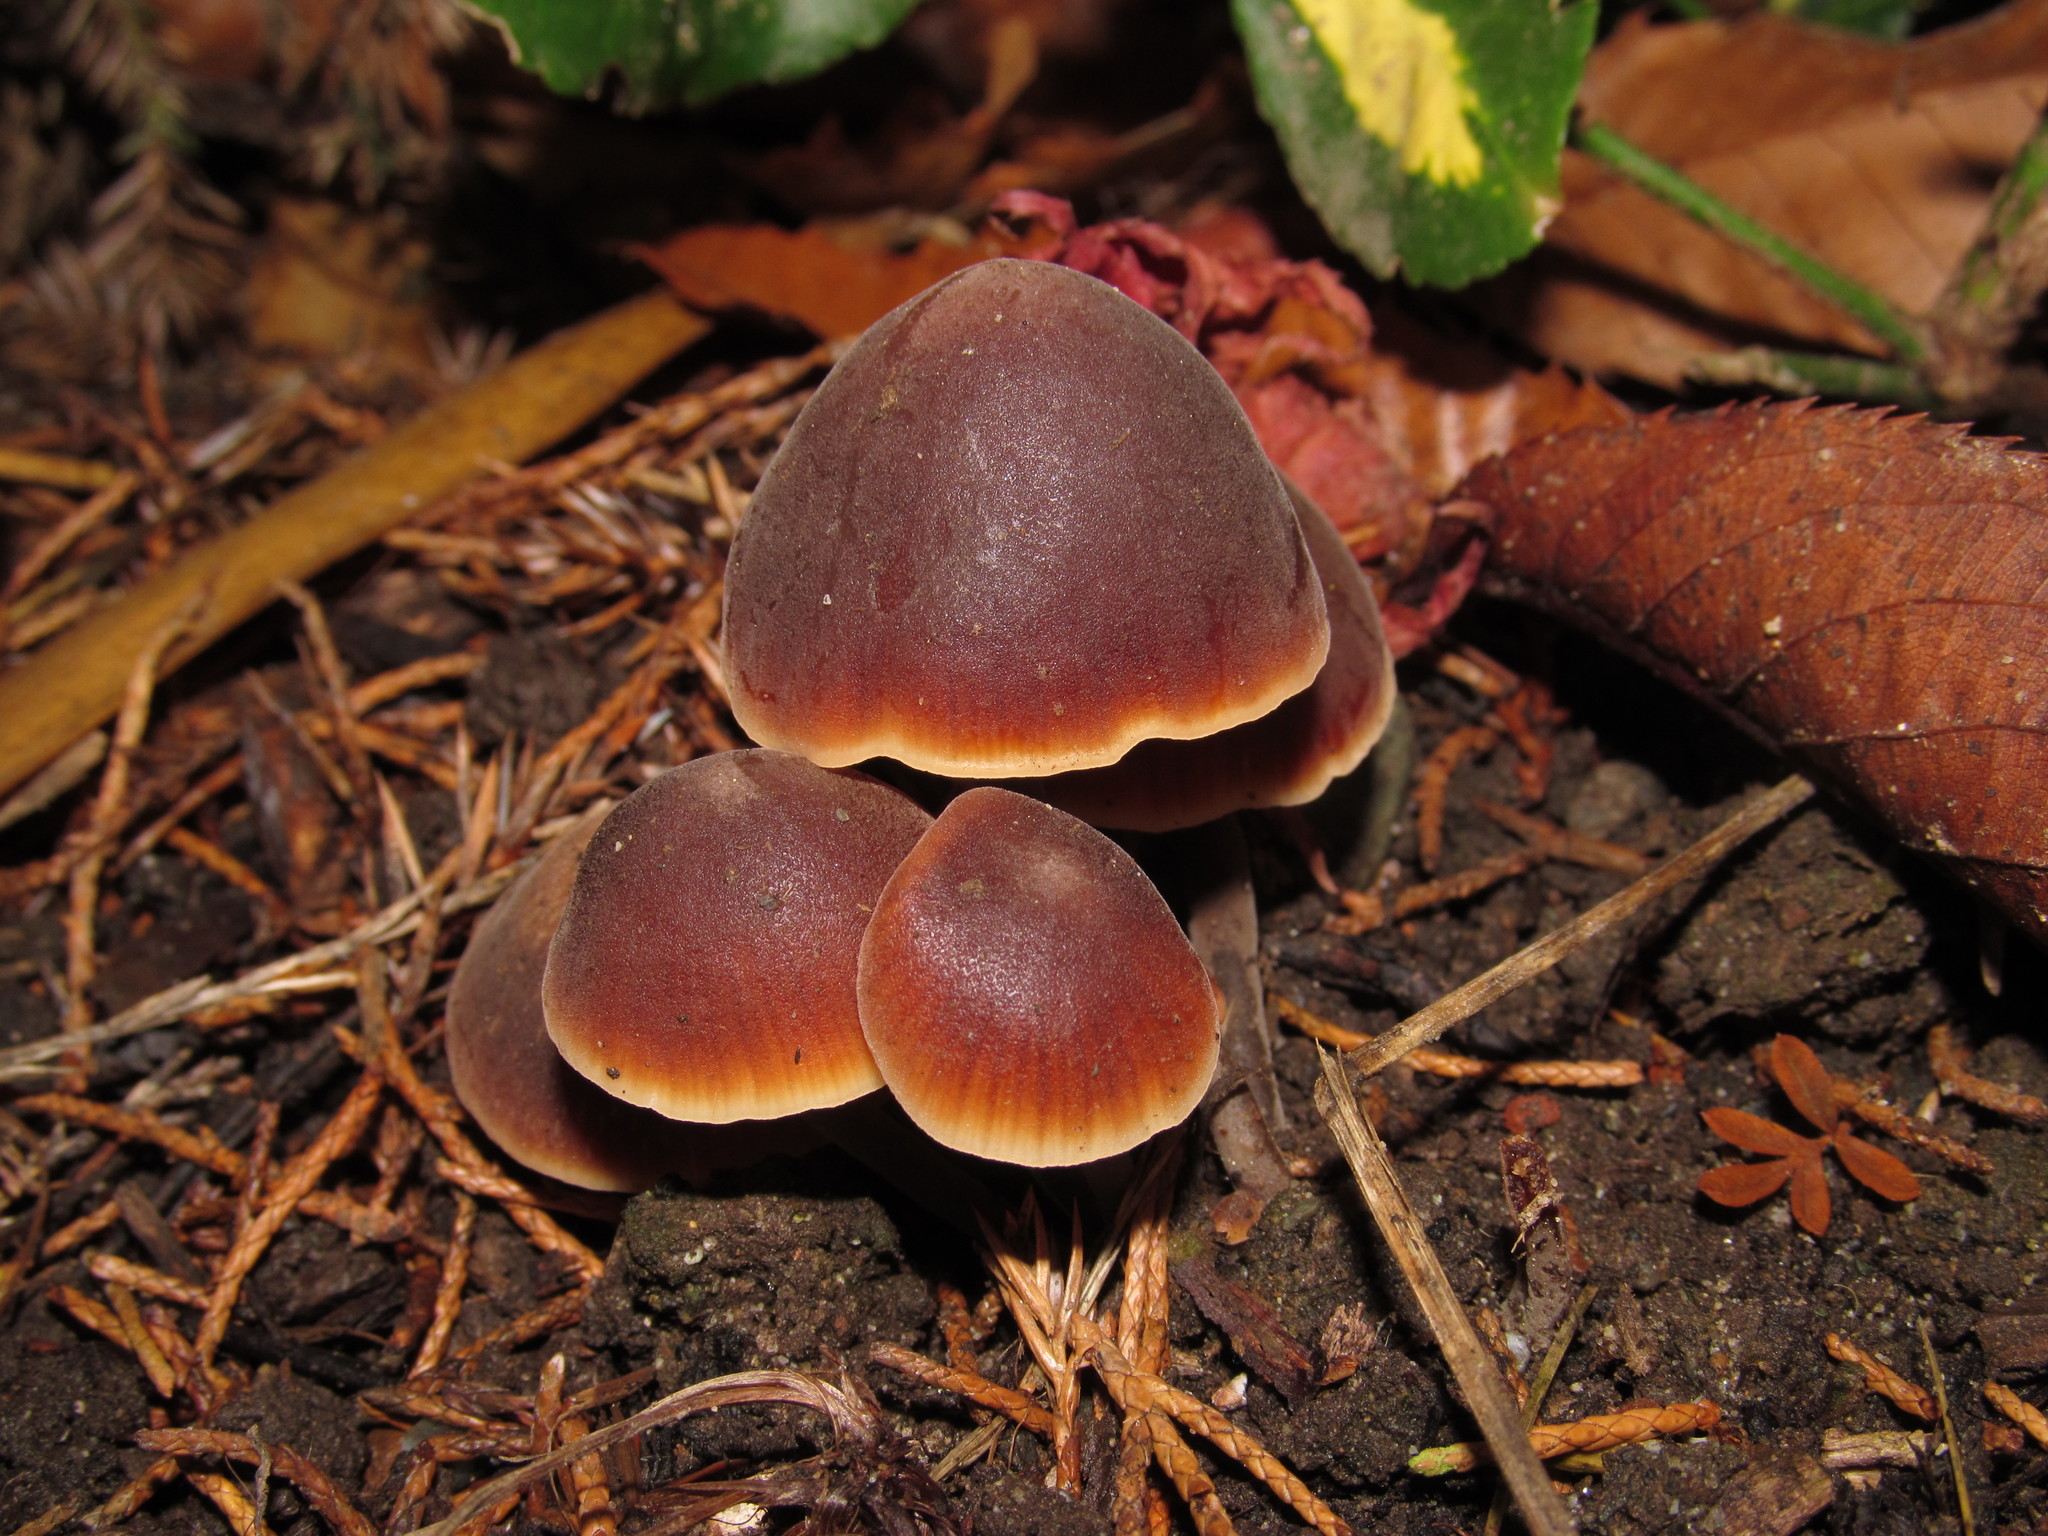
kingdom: Fungi
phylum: Basidiomycota
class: Agaricomycetes
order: Agaricales
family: Macrocystidiaceae
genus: Macrocystidia
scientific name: Macrocystidia cucumis
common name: Cucumber cap
